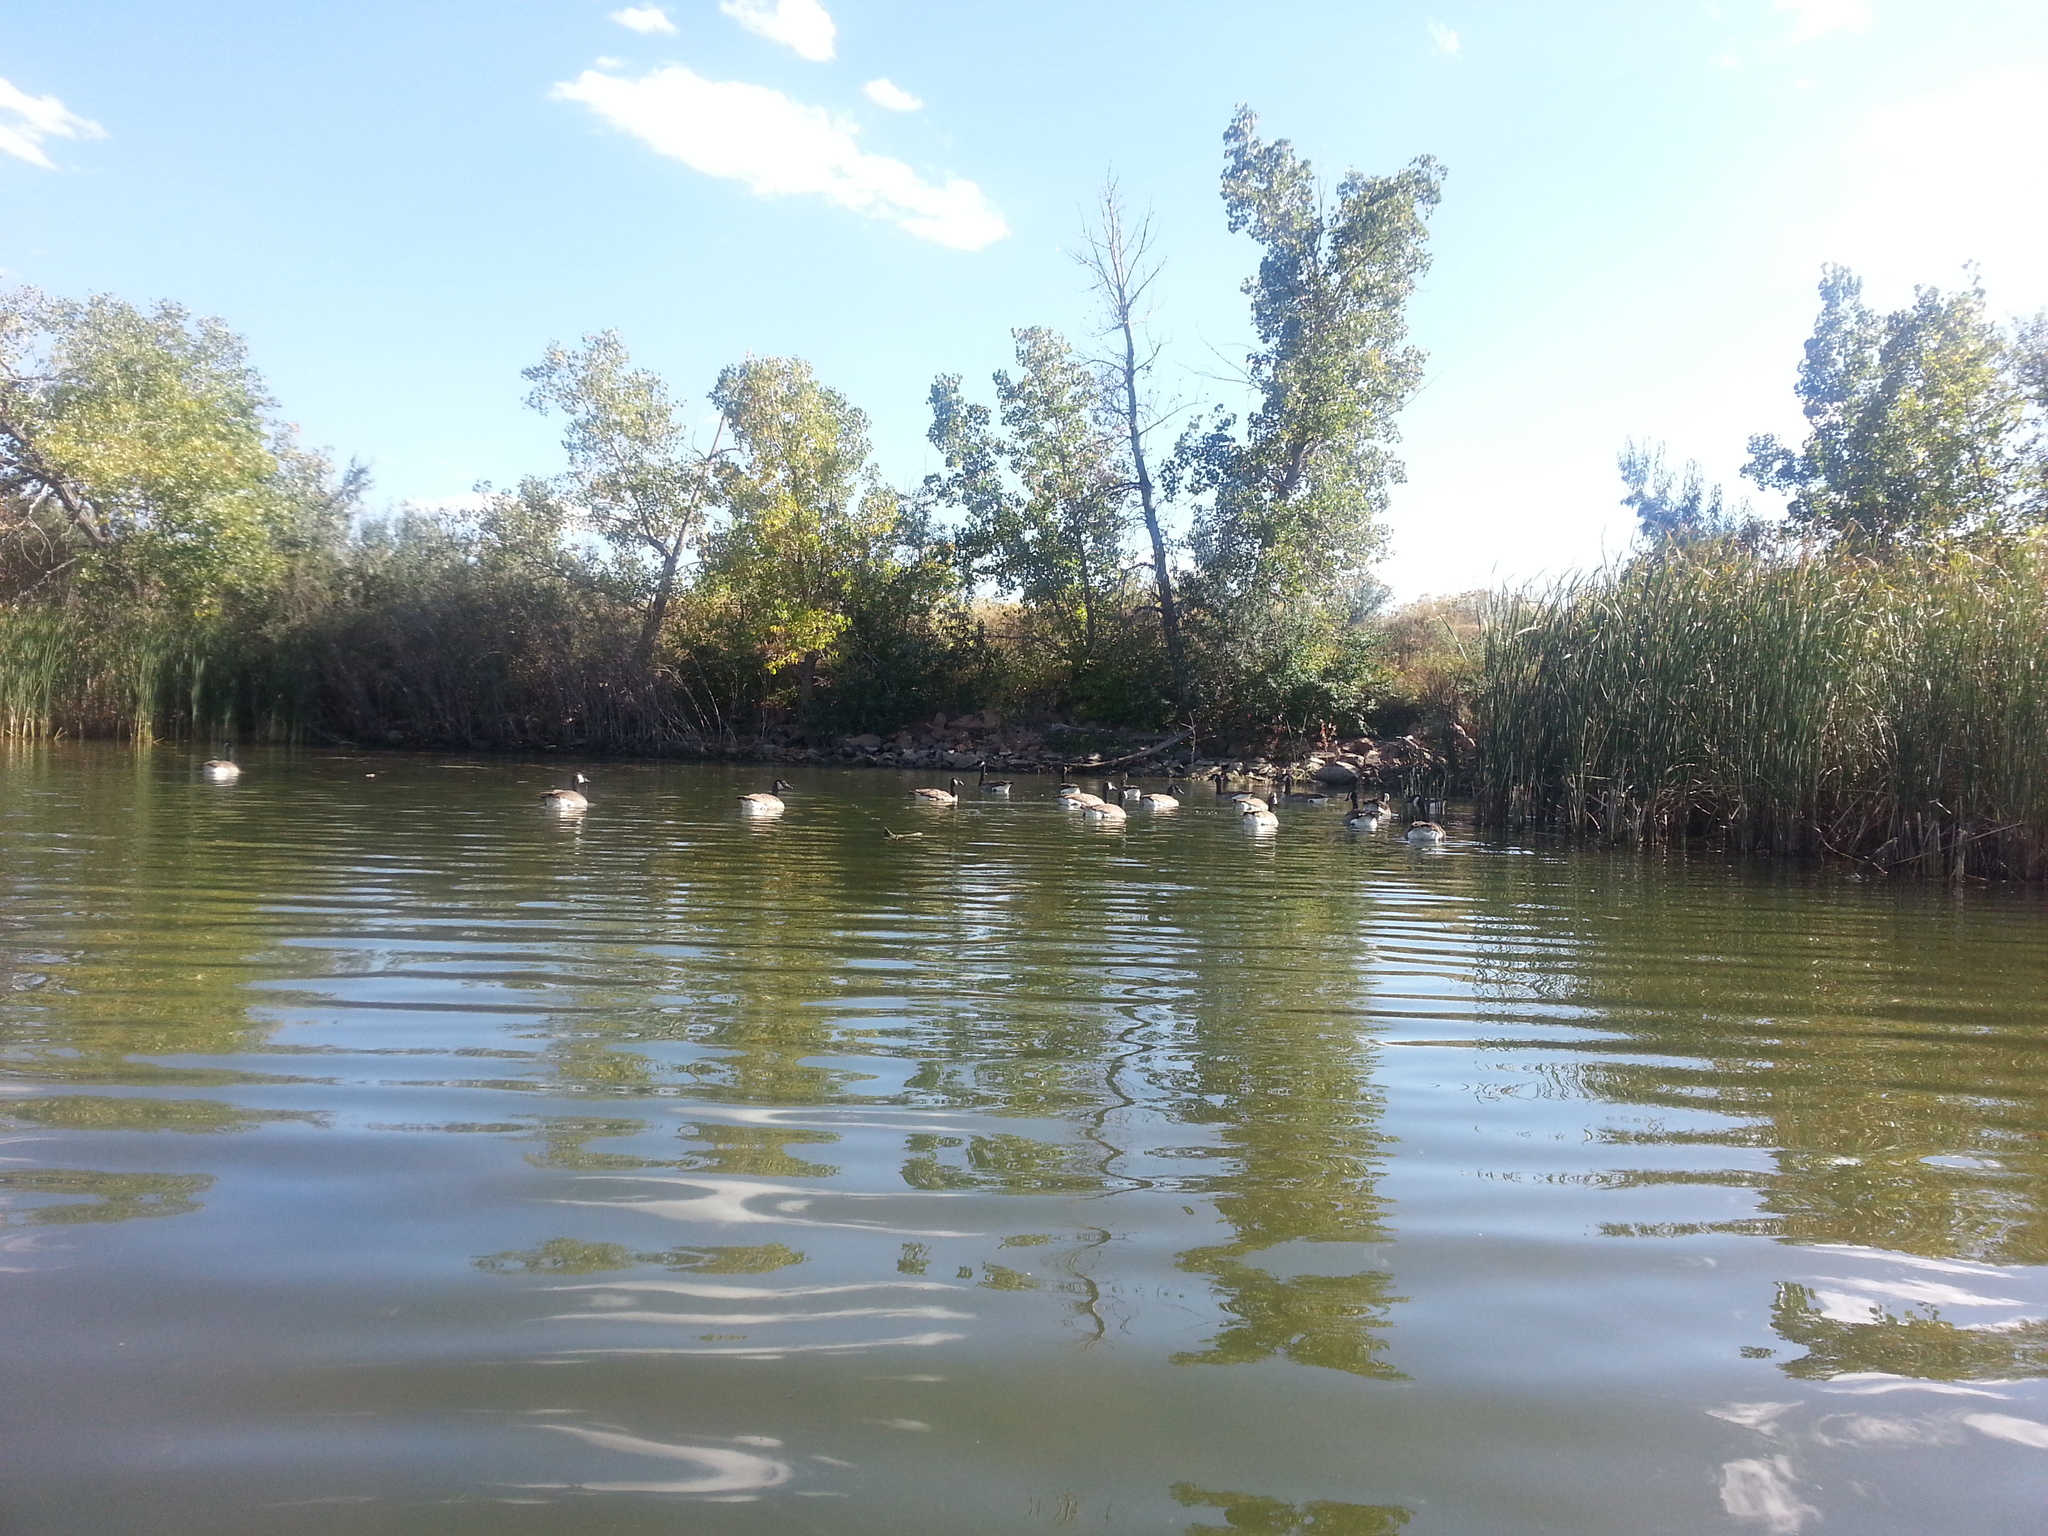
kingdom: Animalia
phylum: Chordata
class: Aves
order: Anseriformes
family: Anatidae
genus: Branta
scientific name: Branta canadensis
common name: Canada goose
